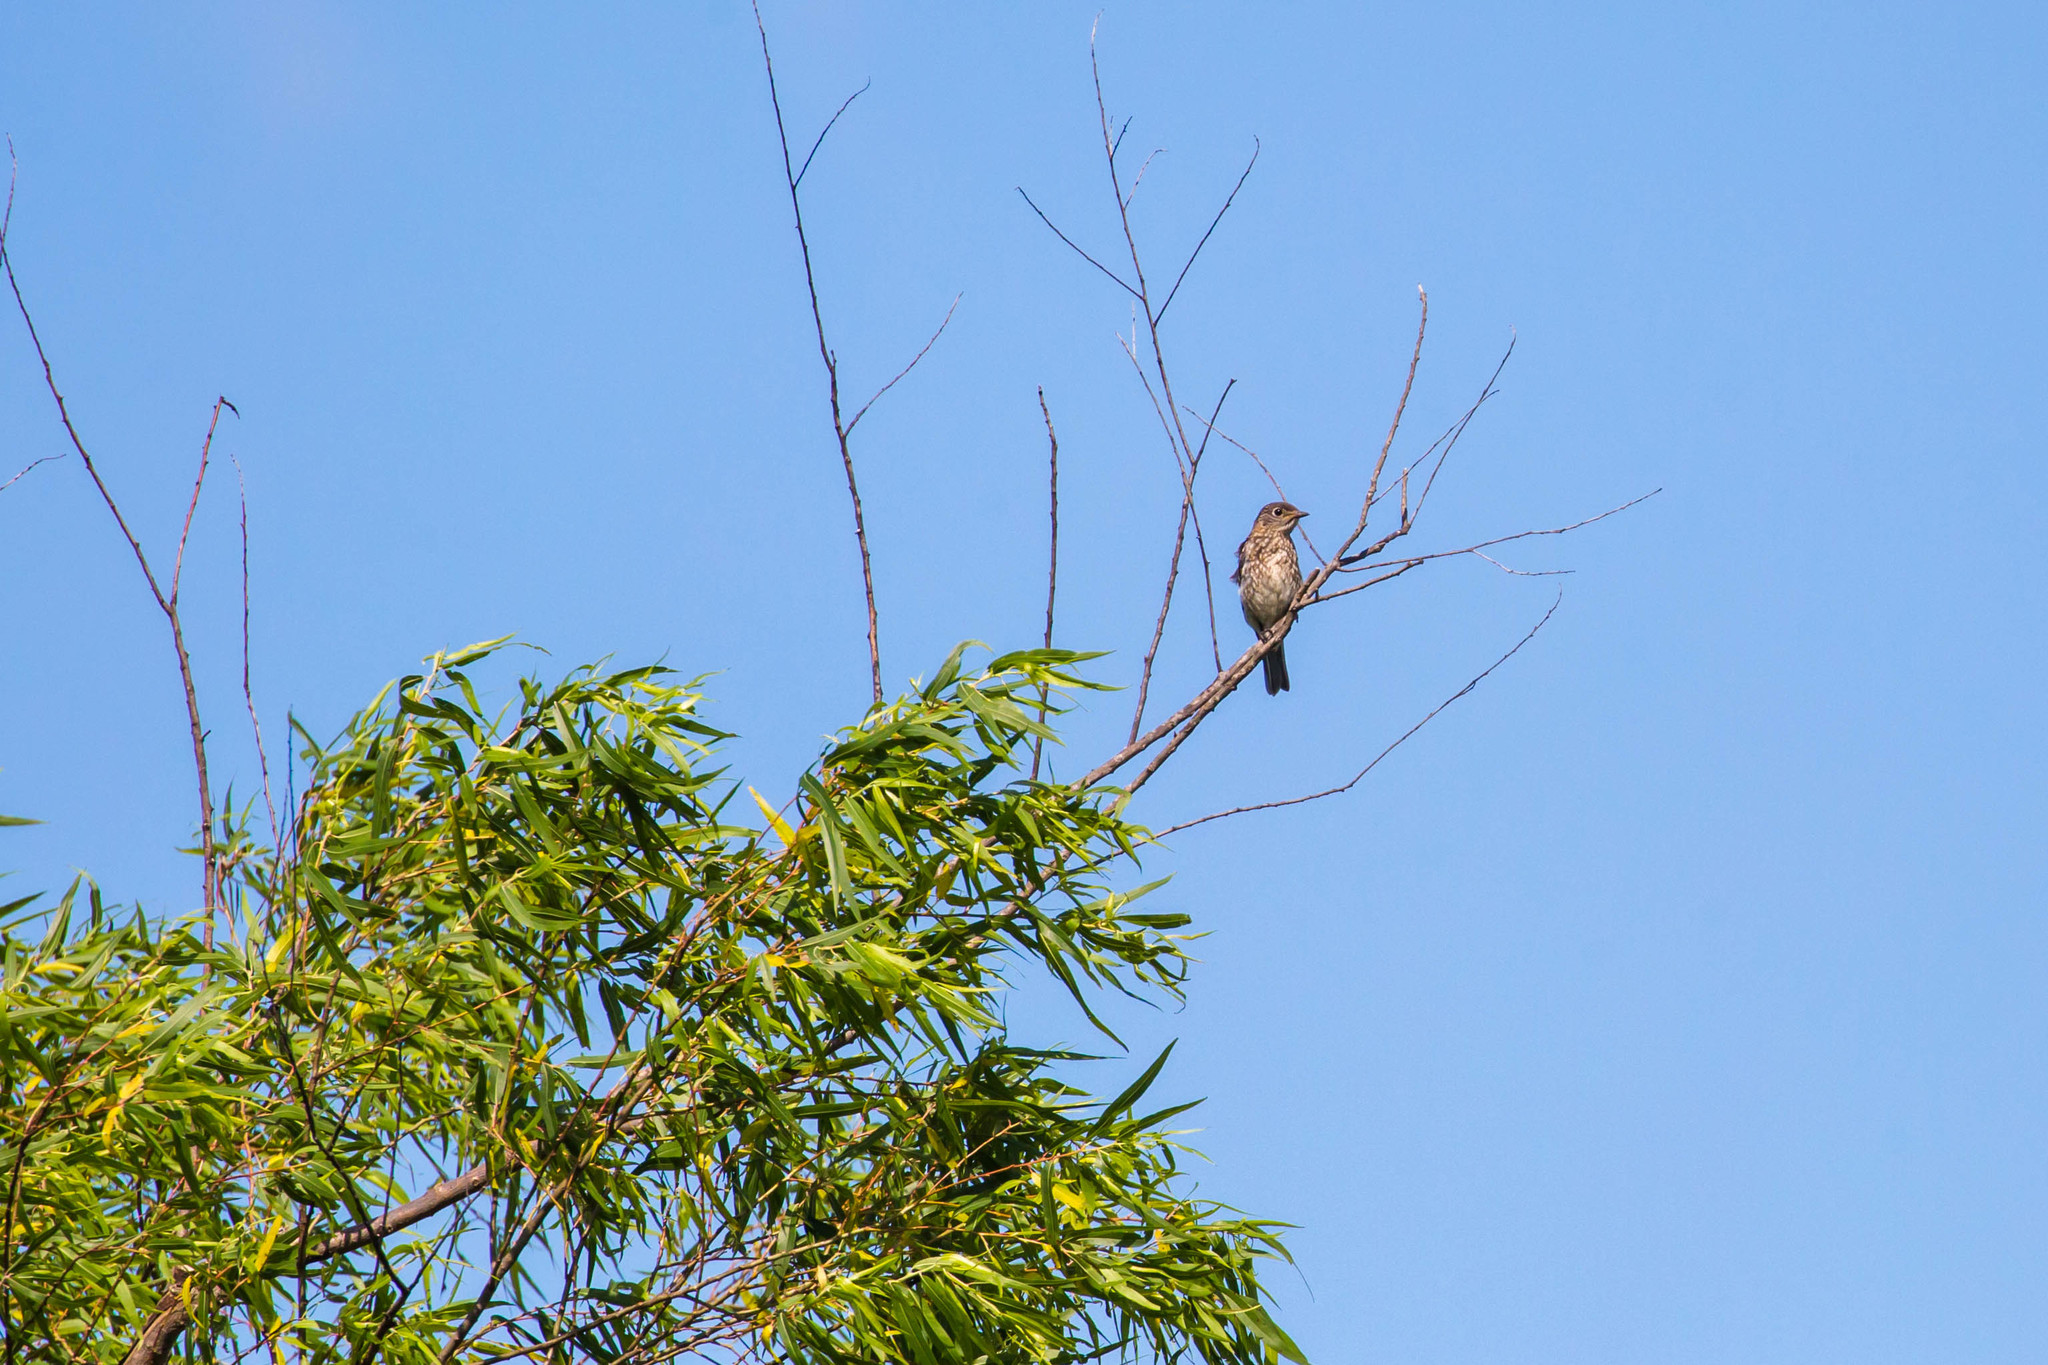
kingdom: Animalia
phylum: Chordata
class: Aves
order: Passeriformes
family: Turdidae
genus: Sialia
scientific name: Sialia sialis
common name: Eastern bluebird
